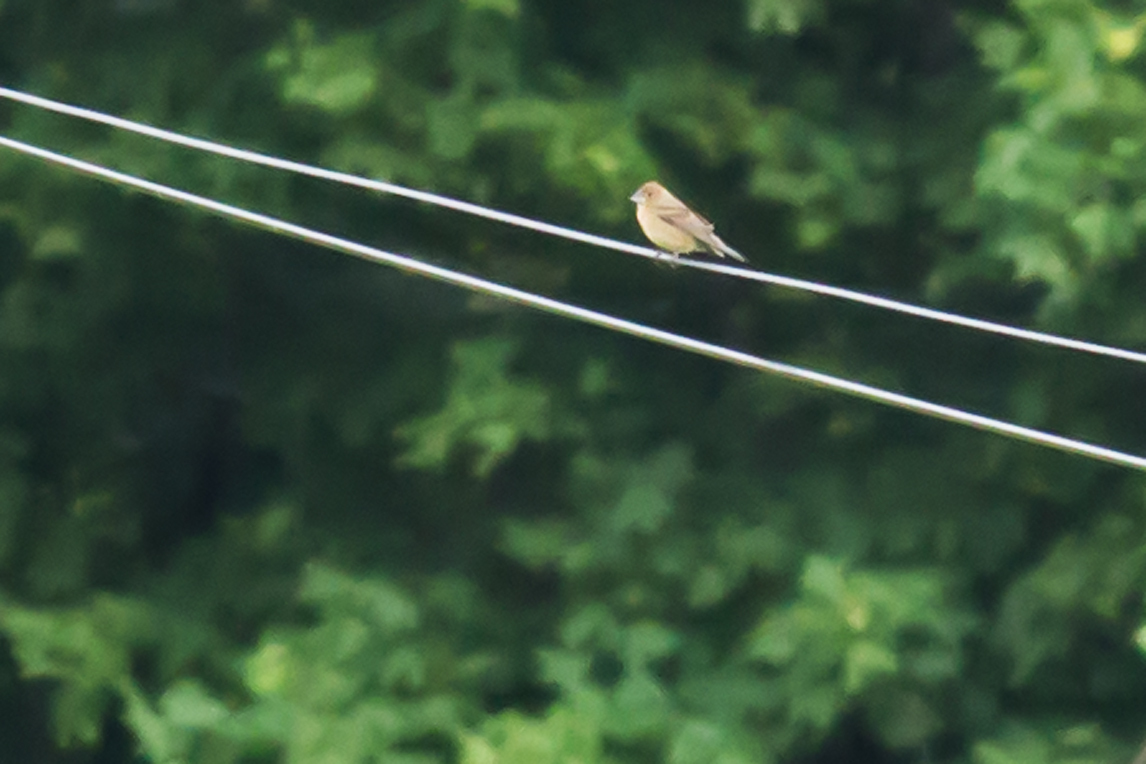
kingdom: Animalia
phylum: Chordata
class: Aves
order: Passeriformes
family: Cardinalidae
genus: Passerina
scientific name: Passerina caerulea
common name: Blue grosbeak
